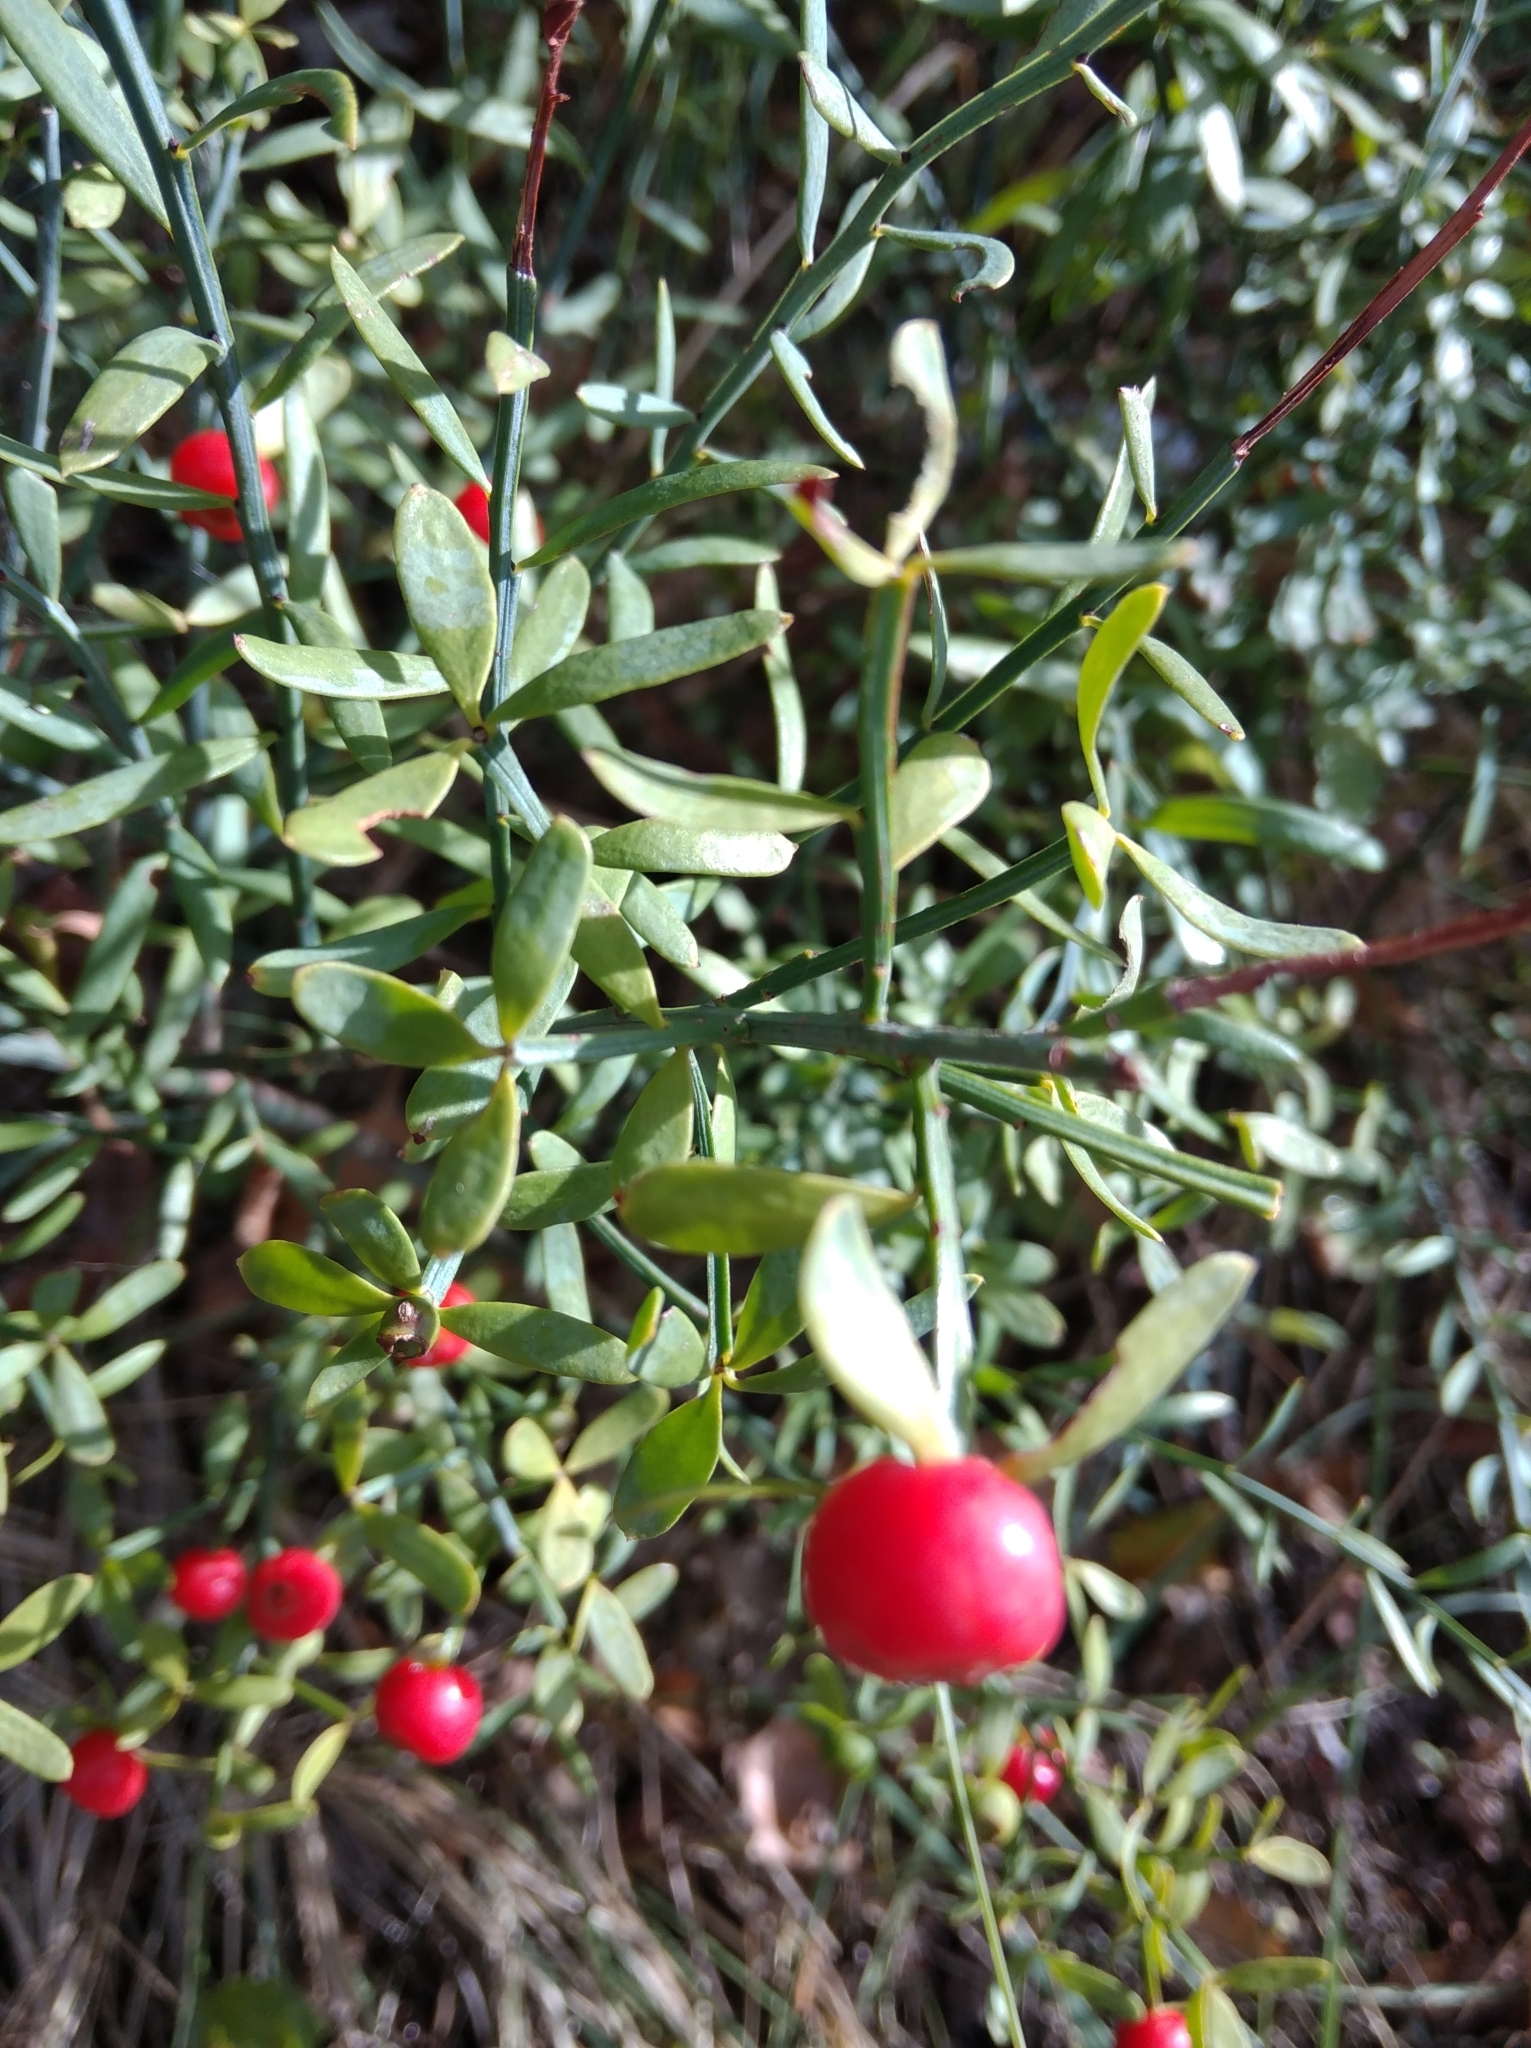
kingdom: Plantae
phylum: Tracheophyta
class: Magnoliopsida
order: Santalales
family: Santalaceae
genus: Osyris
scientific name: Osyris alba
